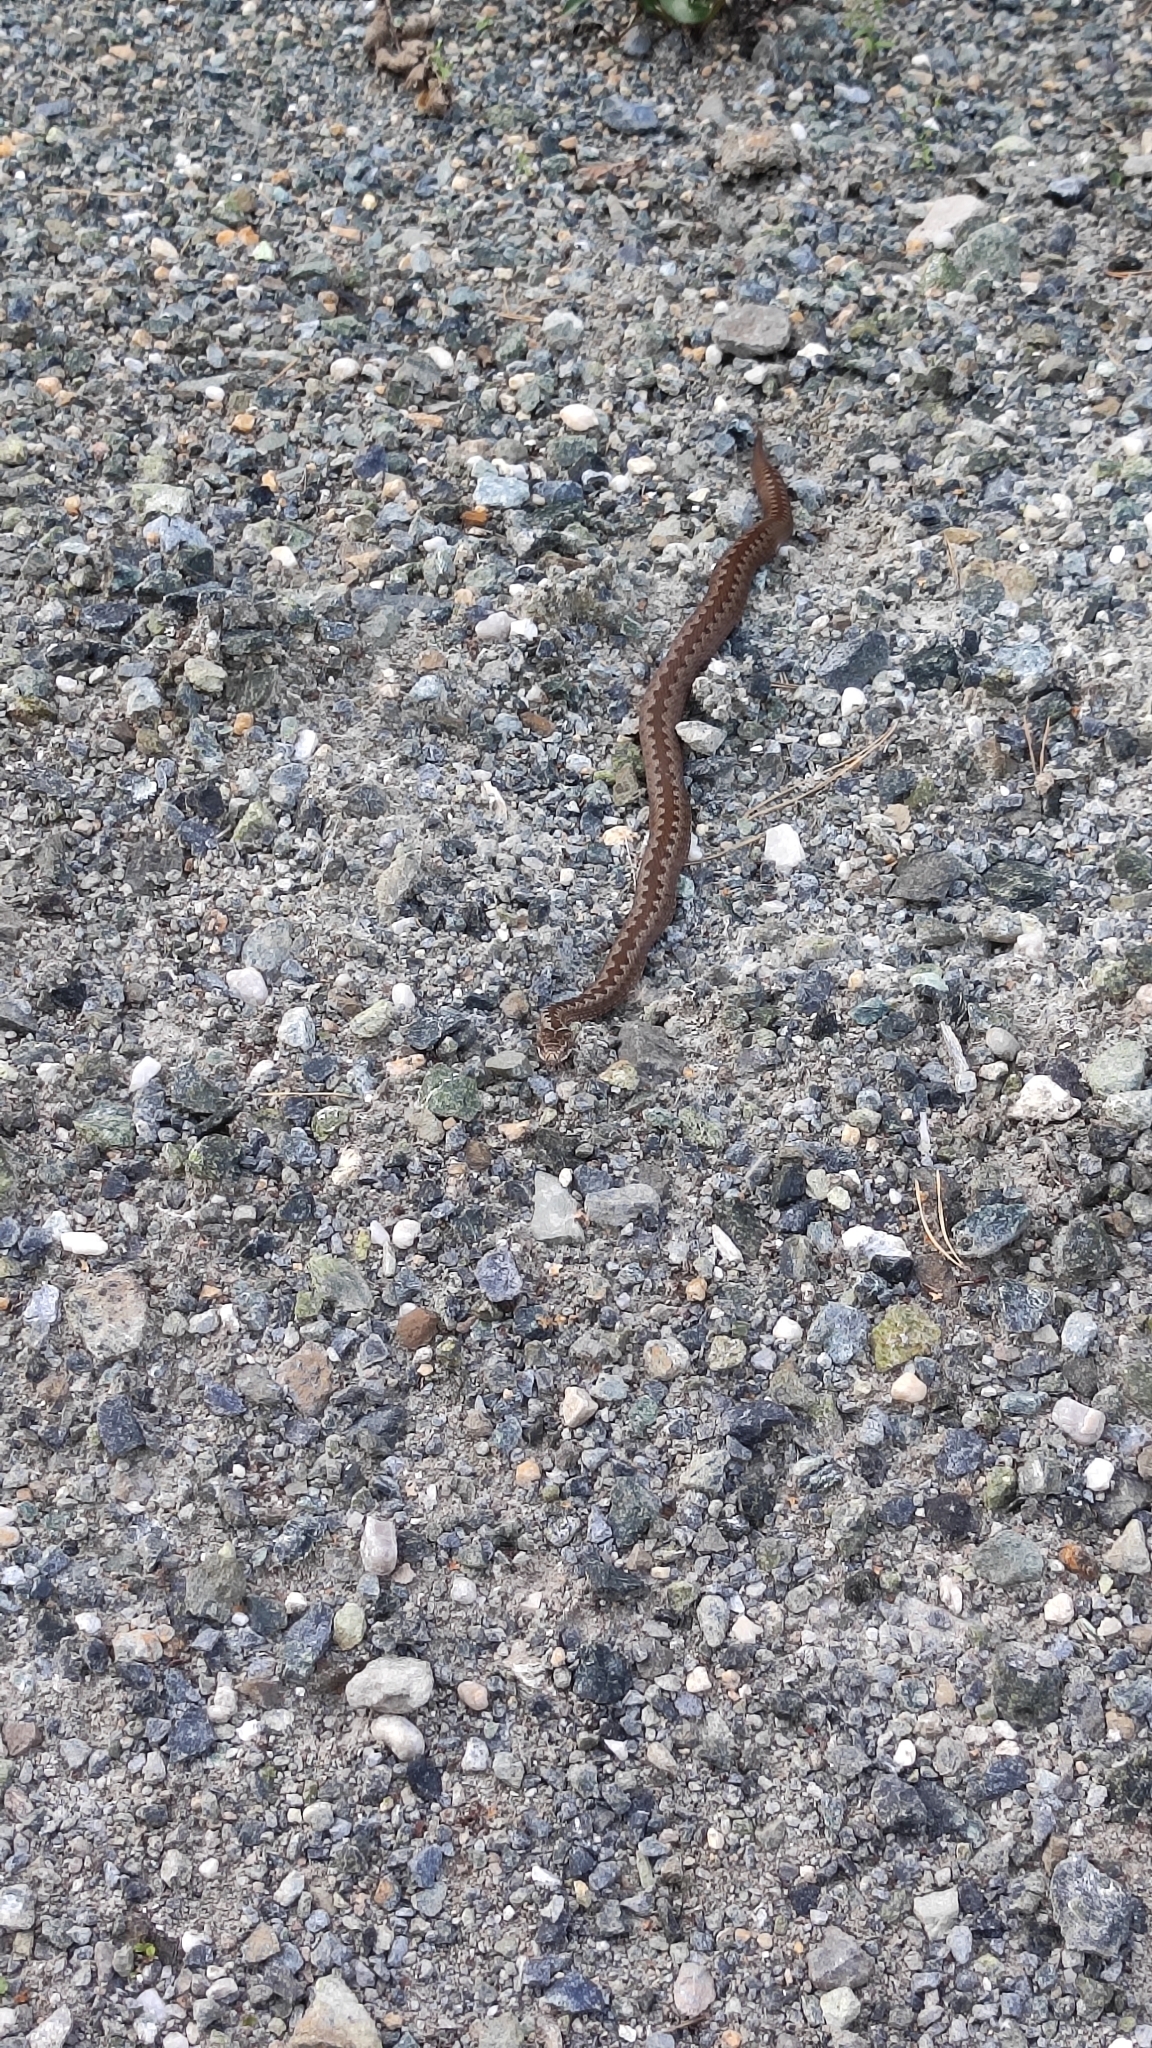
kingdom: Animalia
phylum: Chordata
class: Squamata
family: Viperidae
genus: Vipera
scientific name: Vipera berus
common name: Adder
